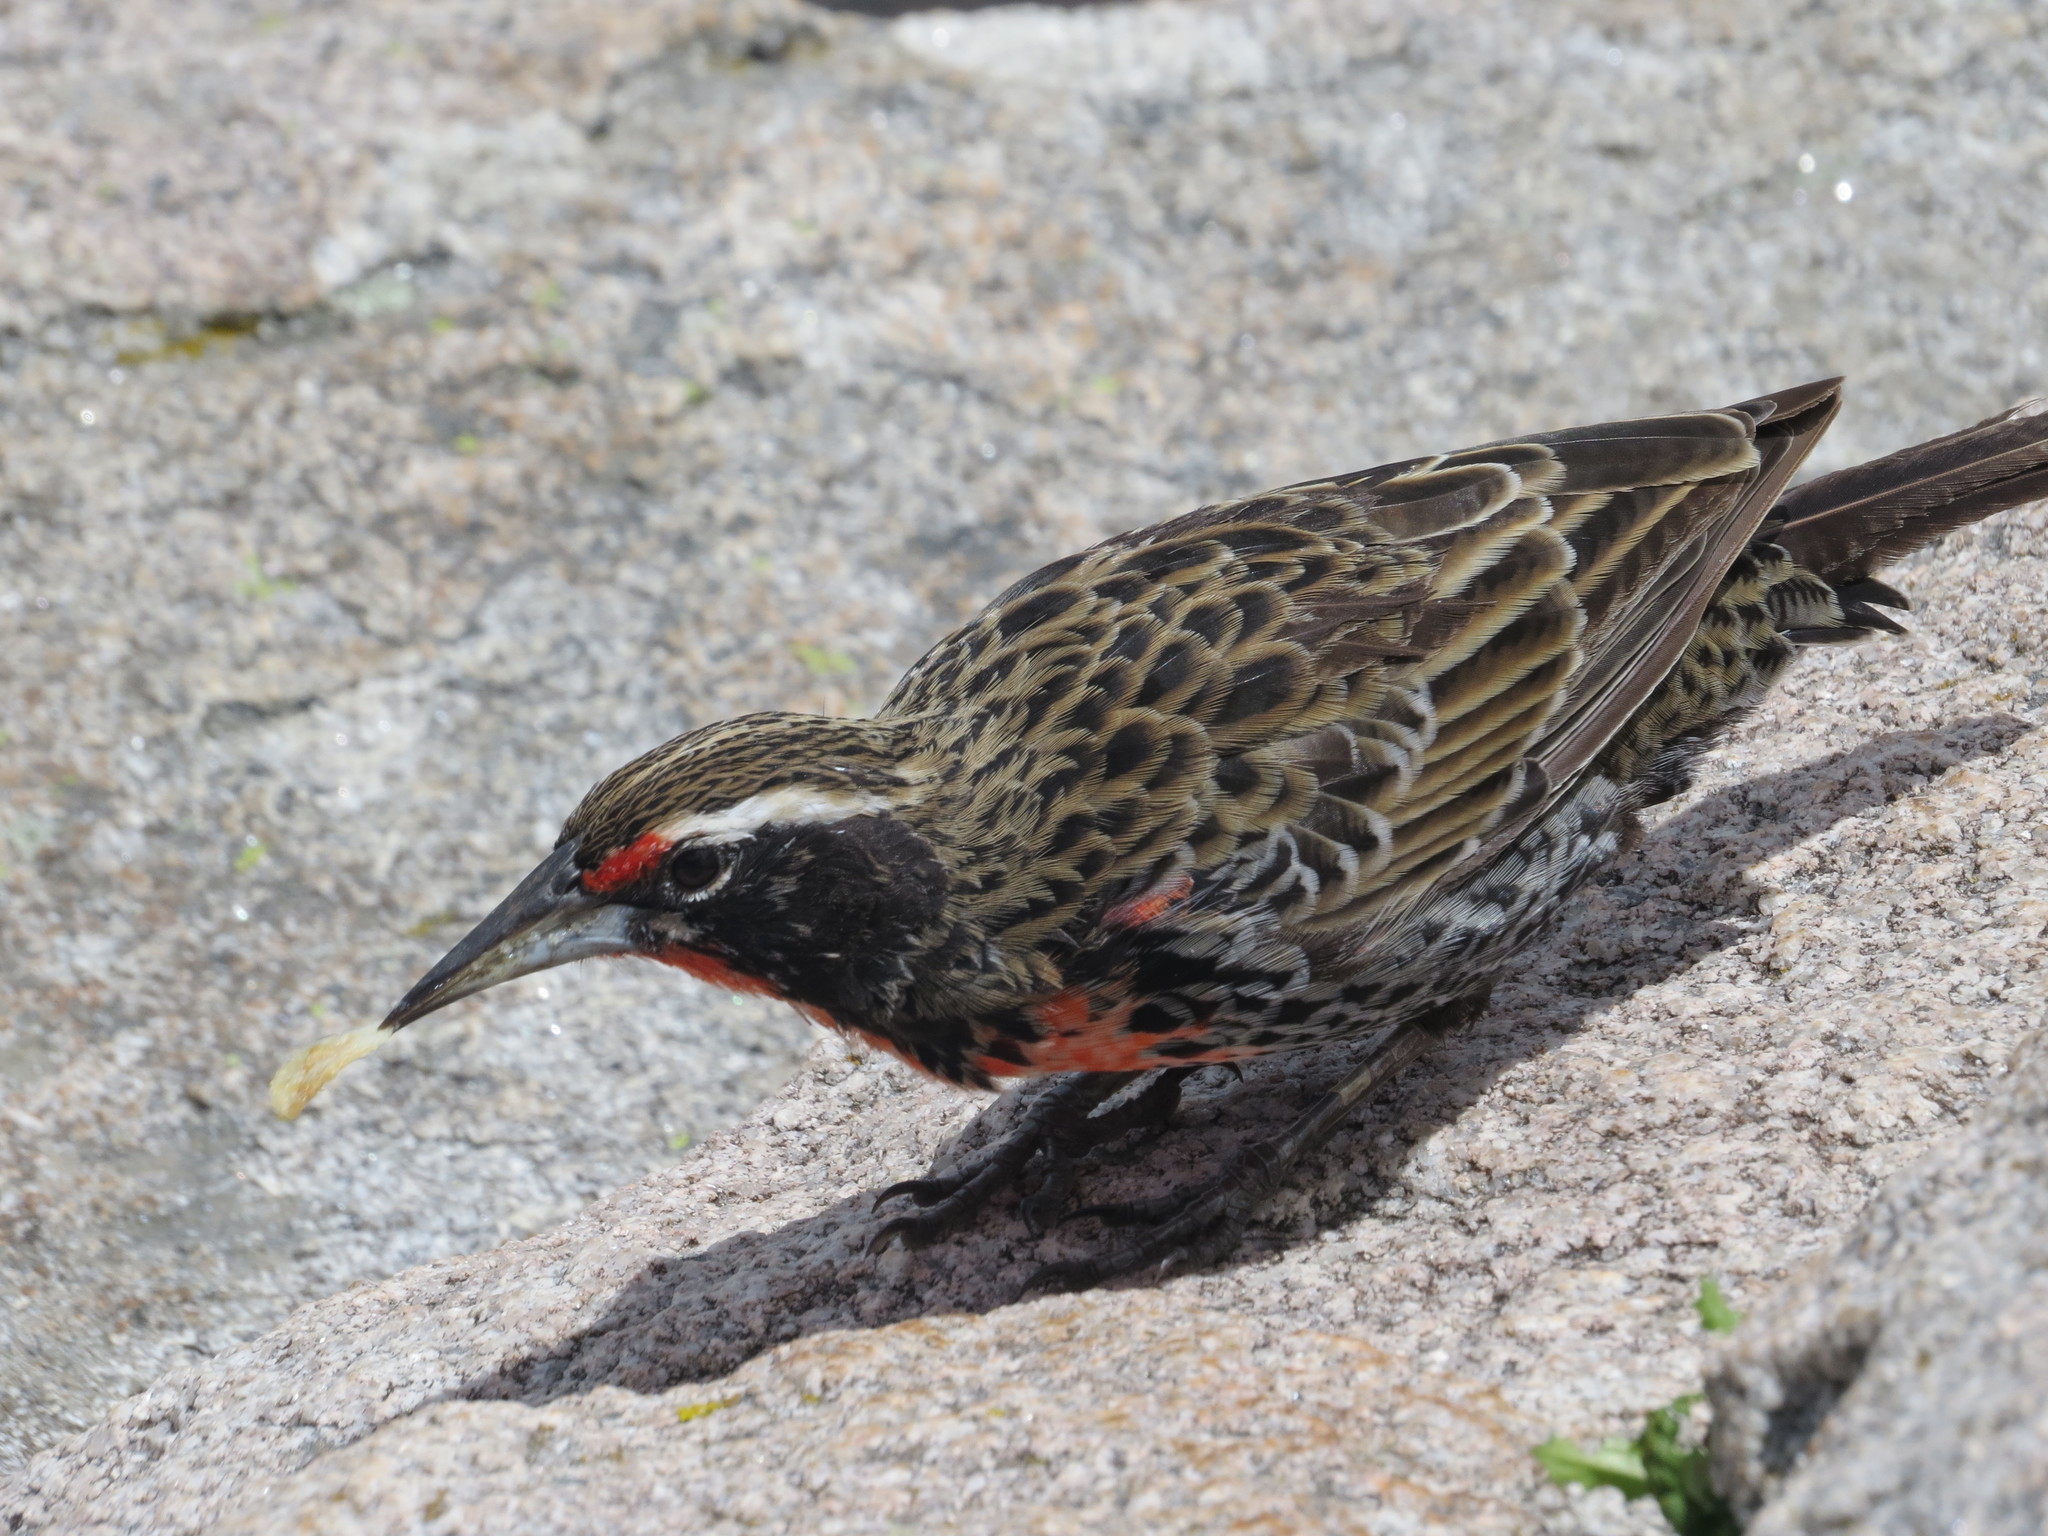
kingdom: Animalia
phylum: Chordata
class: Aves
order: Passeriformes
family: Icteridae
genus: Sturnella
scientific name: Sturnella loyca
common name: Long-tailed meadowlark
